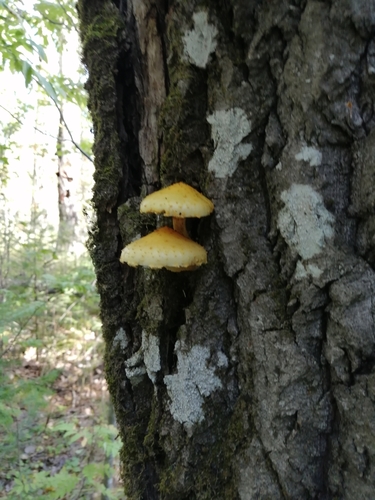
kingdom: Fungi
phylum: Basidiomycota
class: Agaricomycetes
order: Agaricales
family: Strophariaceae
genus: Pholiota
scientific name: Pholiota
